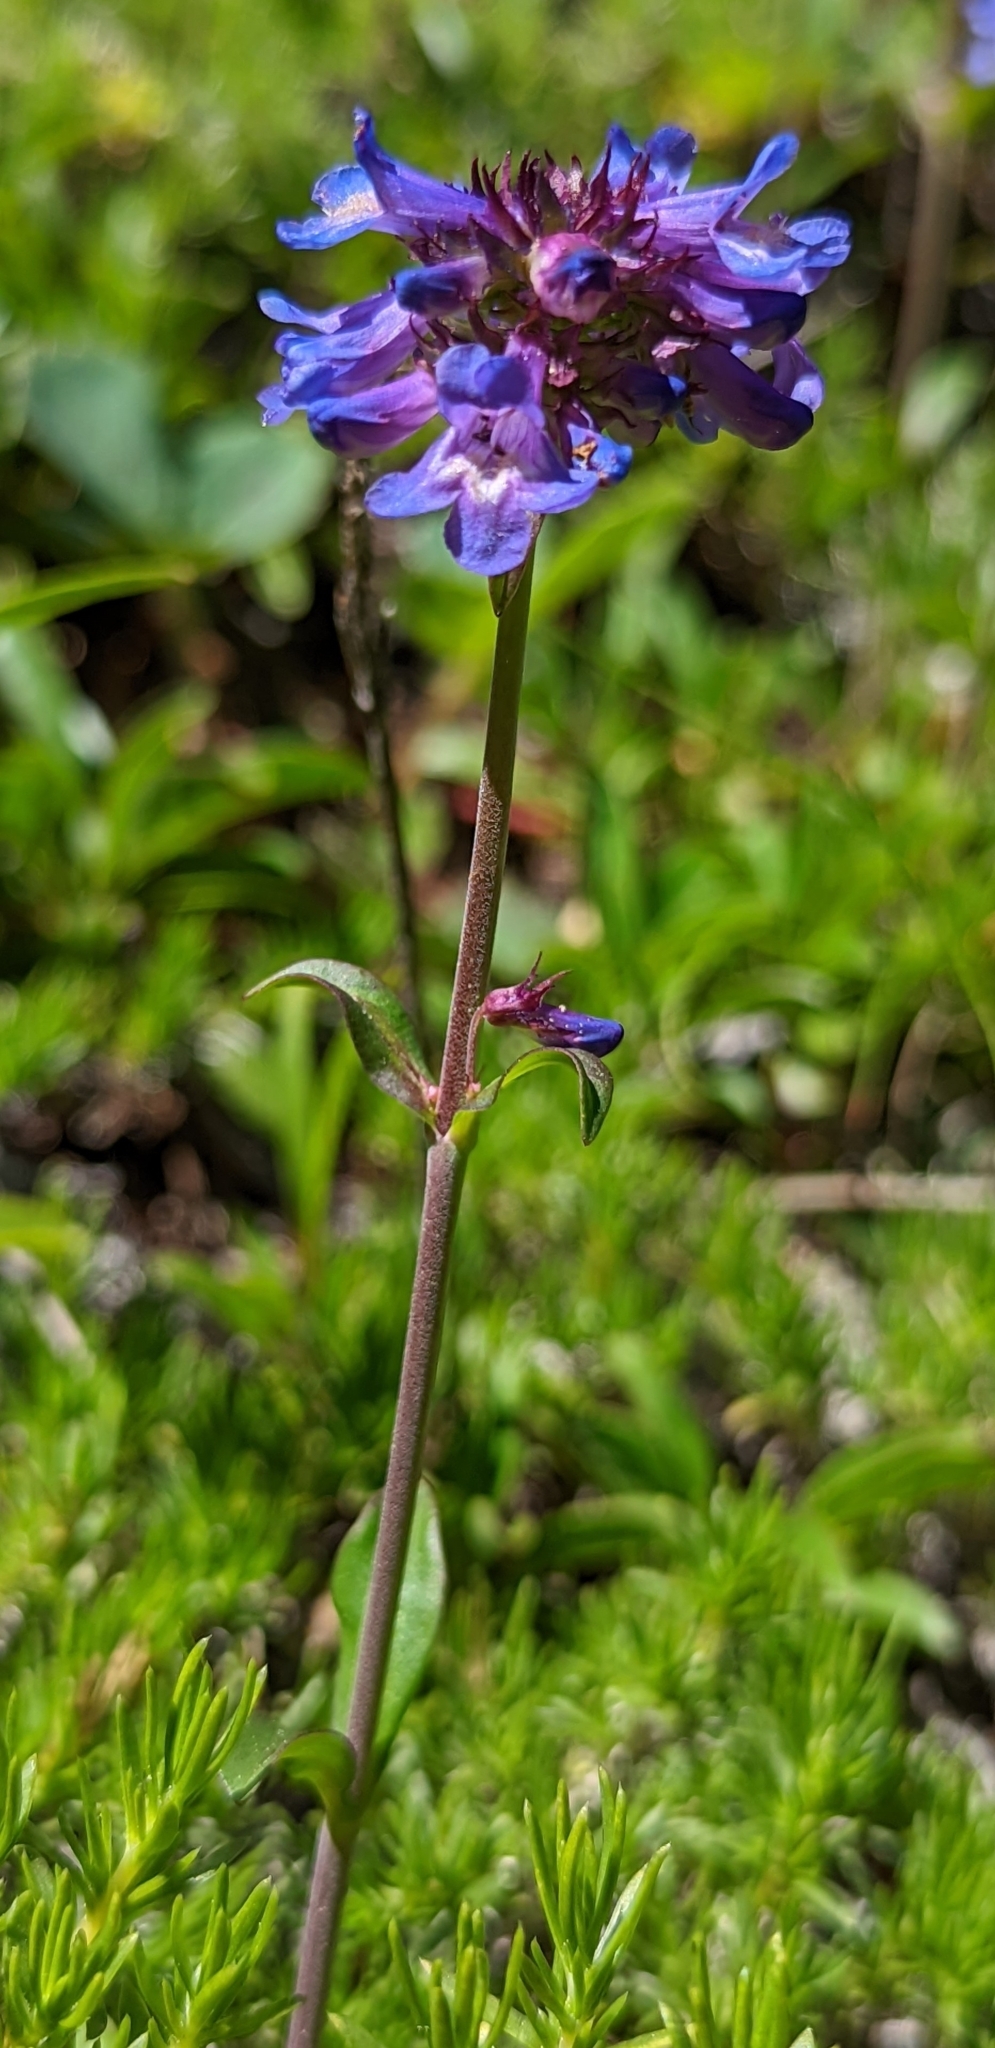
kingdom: Plantae
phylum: Tracheophyta
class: Magnoliopsida
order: Lamiales
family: Plantaginaceae
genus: Penstemon
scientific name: Penstemon procerus
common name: Small-flower penstemon
